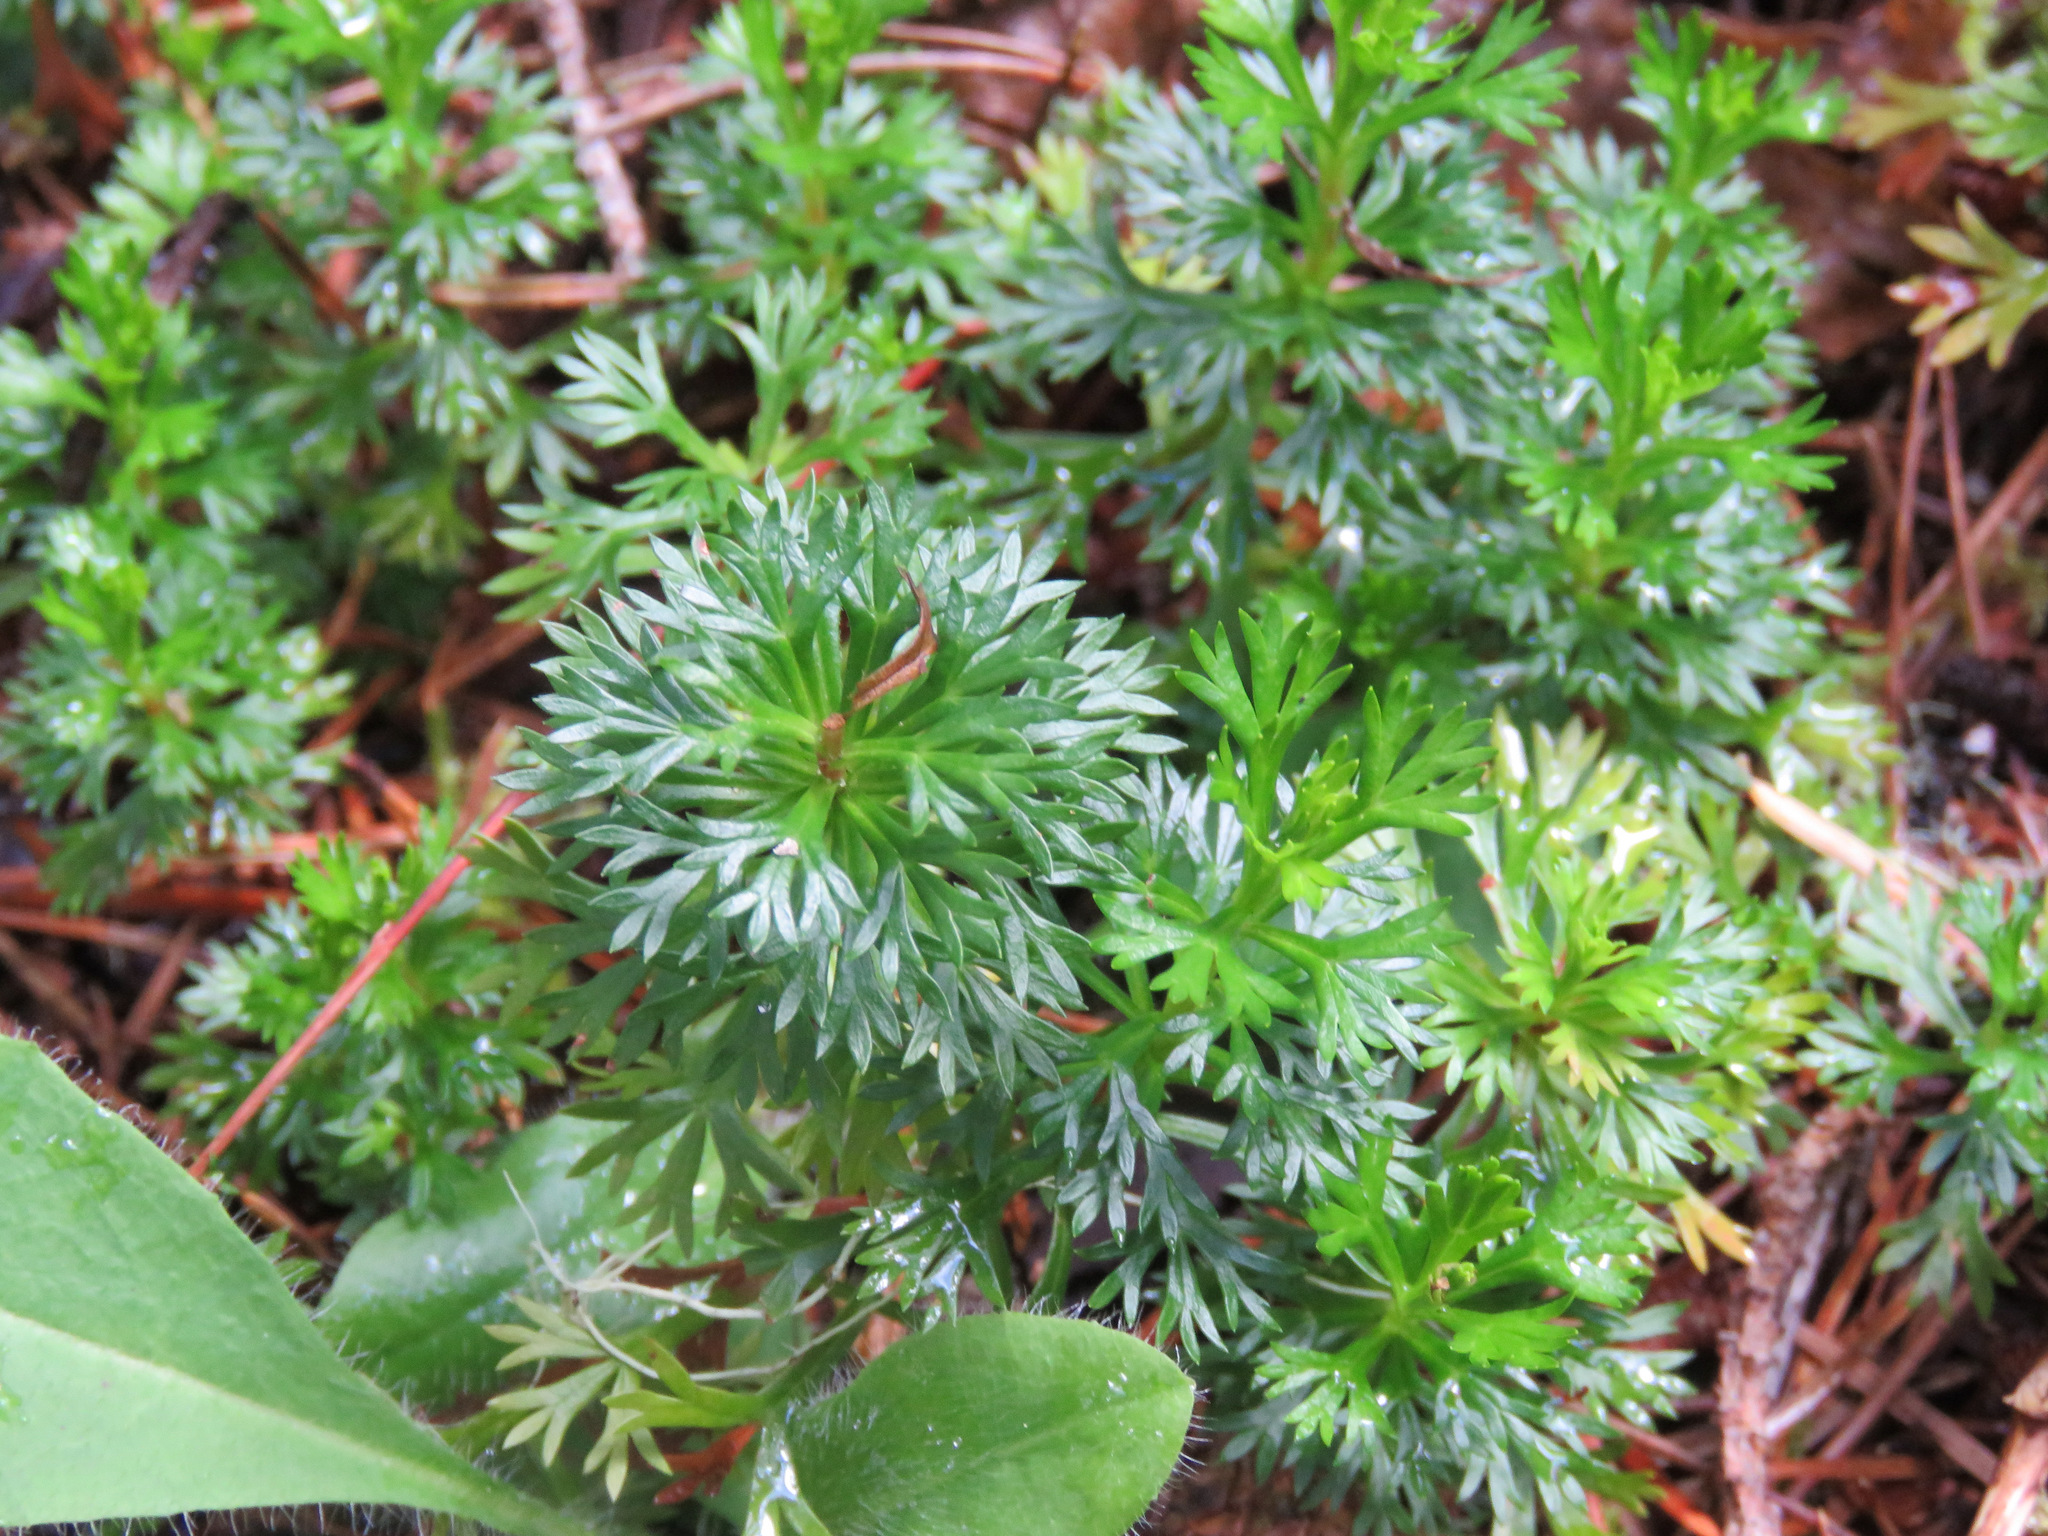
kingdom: Plantae
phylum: Tracheophyta
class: Magnoliopsida
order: Rosales
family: Rosaceae
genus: Luetkea
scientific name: Luetkea pectinata
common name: Partridgefoot
